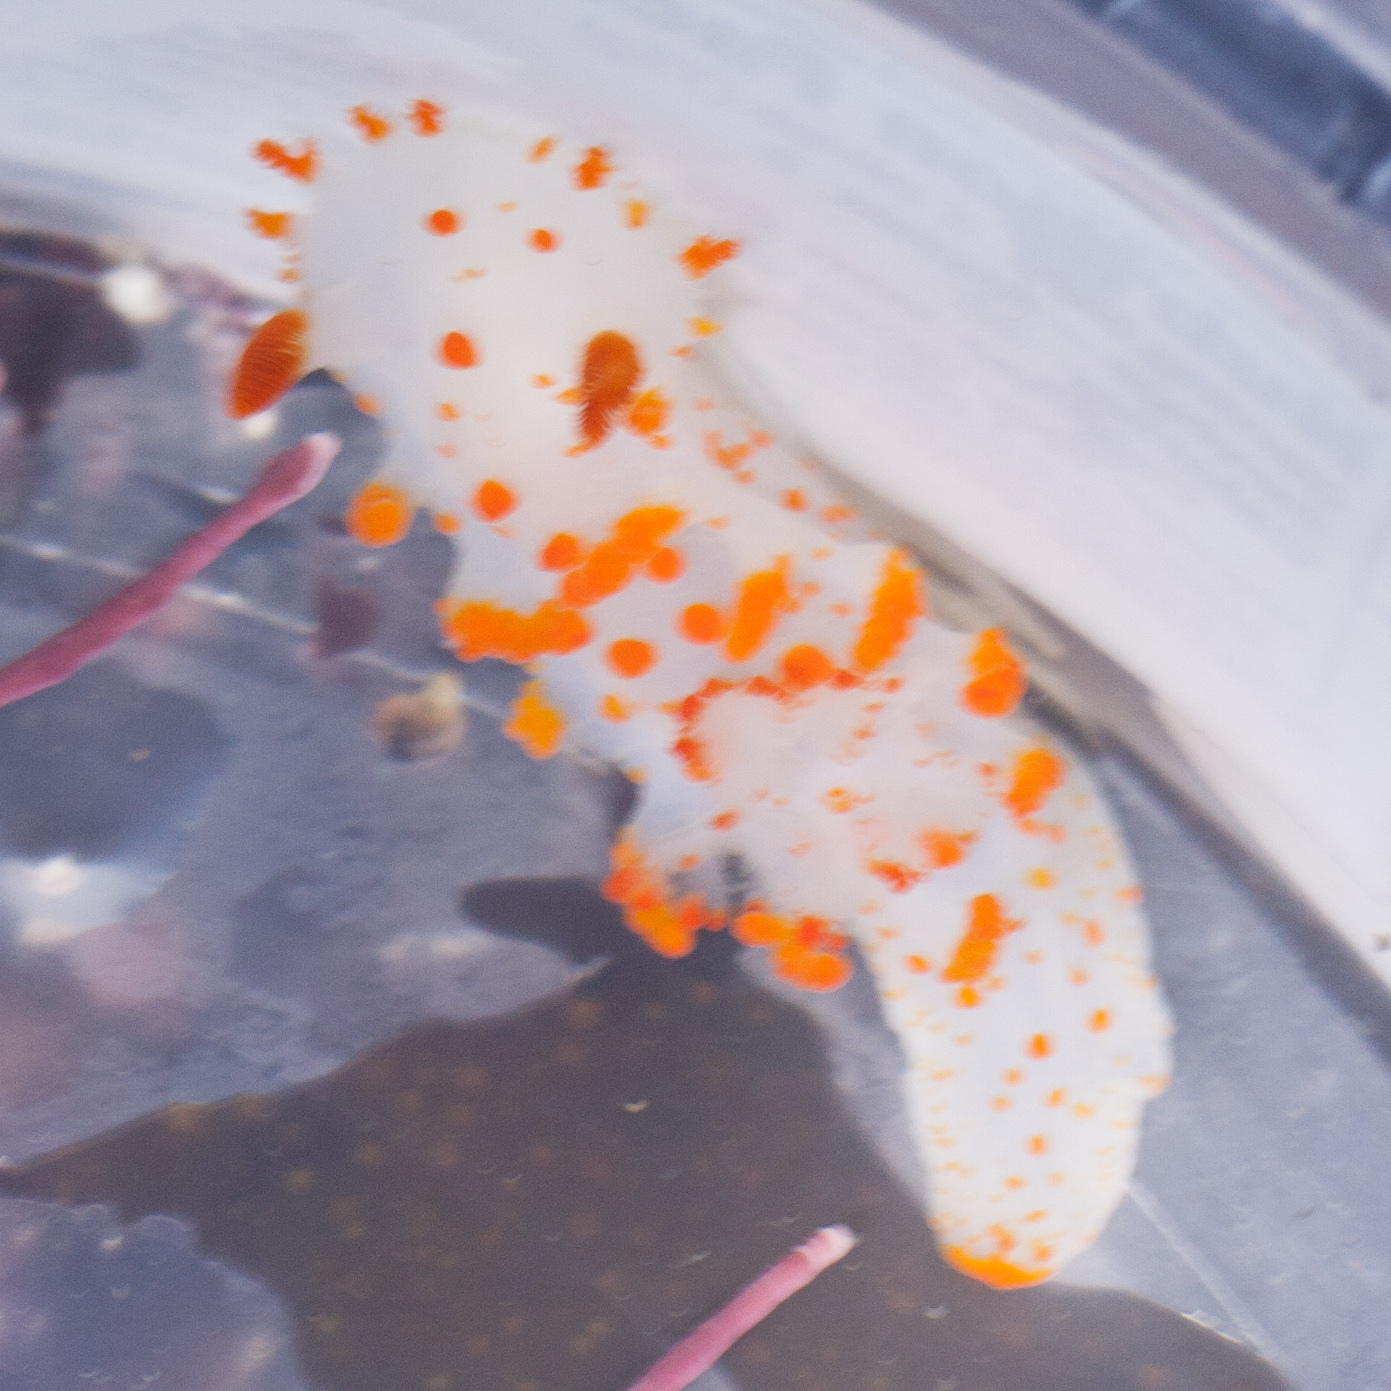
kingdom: Animalia
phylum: Mollusca
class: Gastropoda
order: Nudibranchia
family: Polyceridae
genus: Triopha
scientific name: Triopha catalinae
